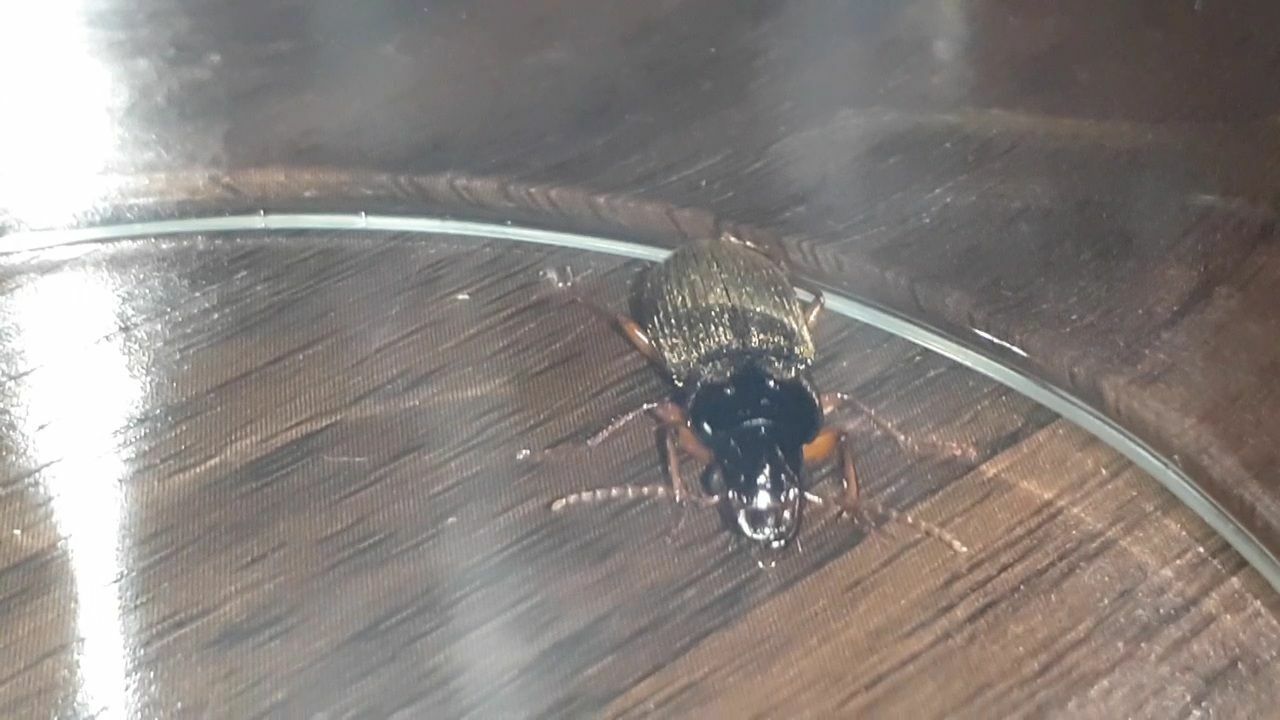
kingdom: Animalia
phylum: Arthropoda
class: Insecta
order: Coleoptera
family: Carabidae
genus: Harpalus
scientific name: Harpalus rufipes
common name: Strawberry harp ground beetle
